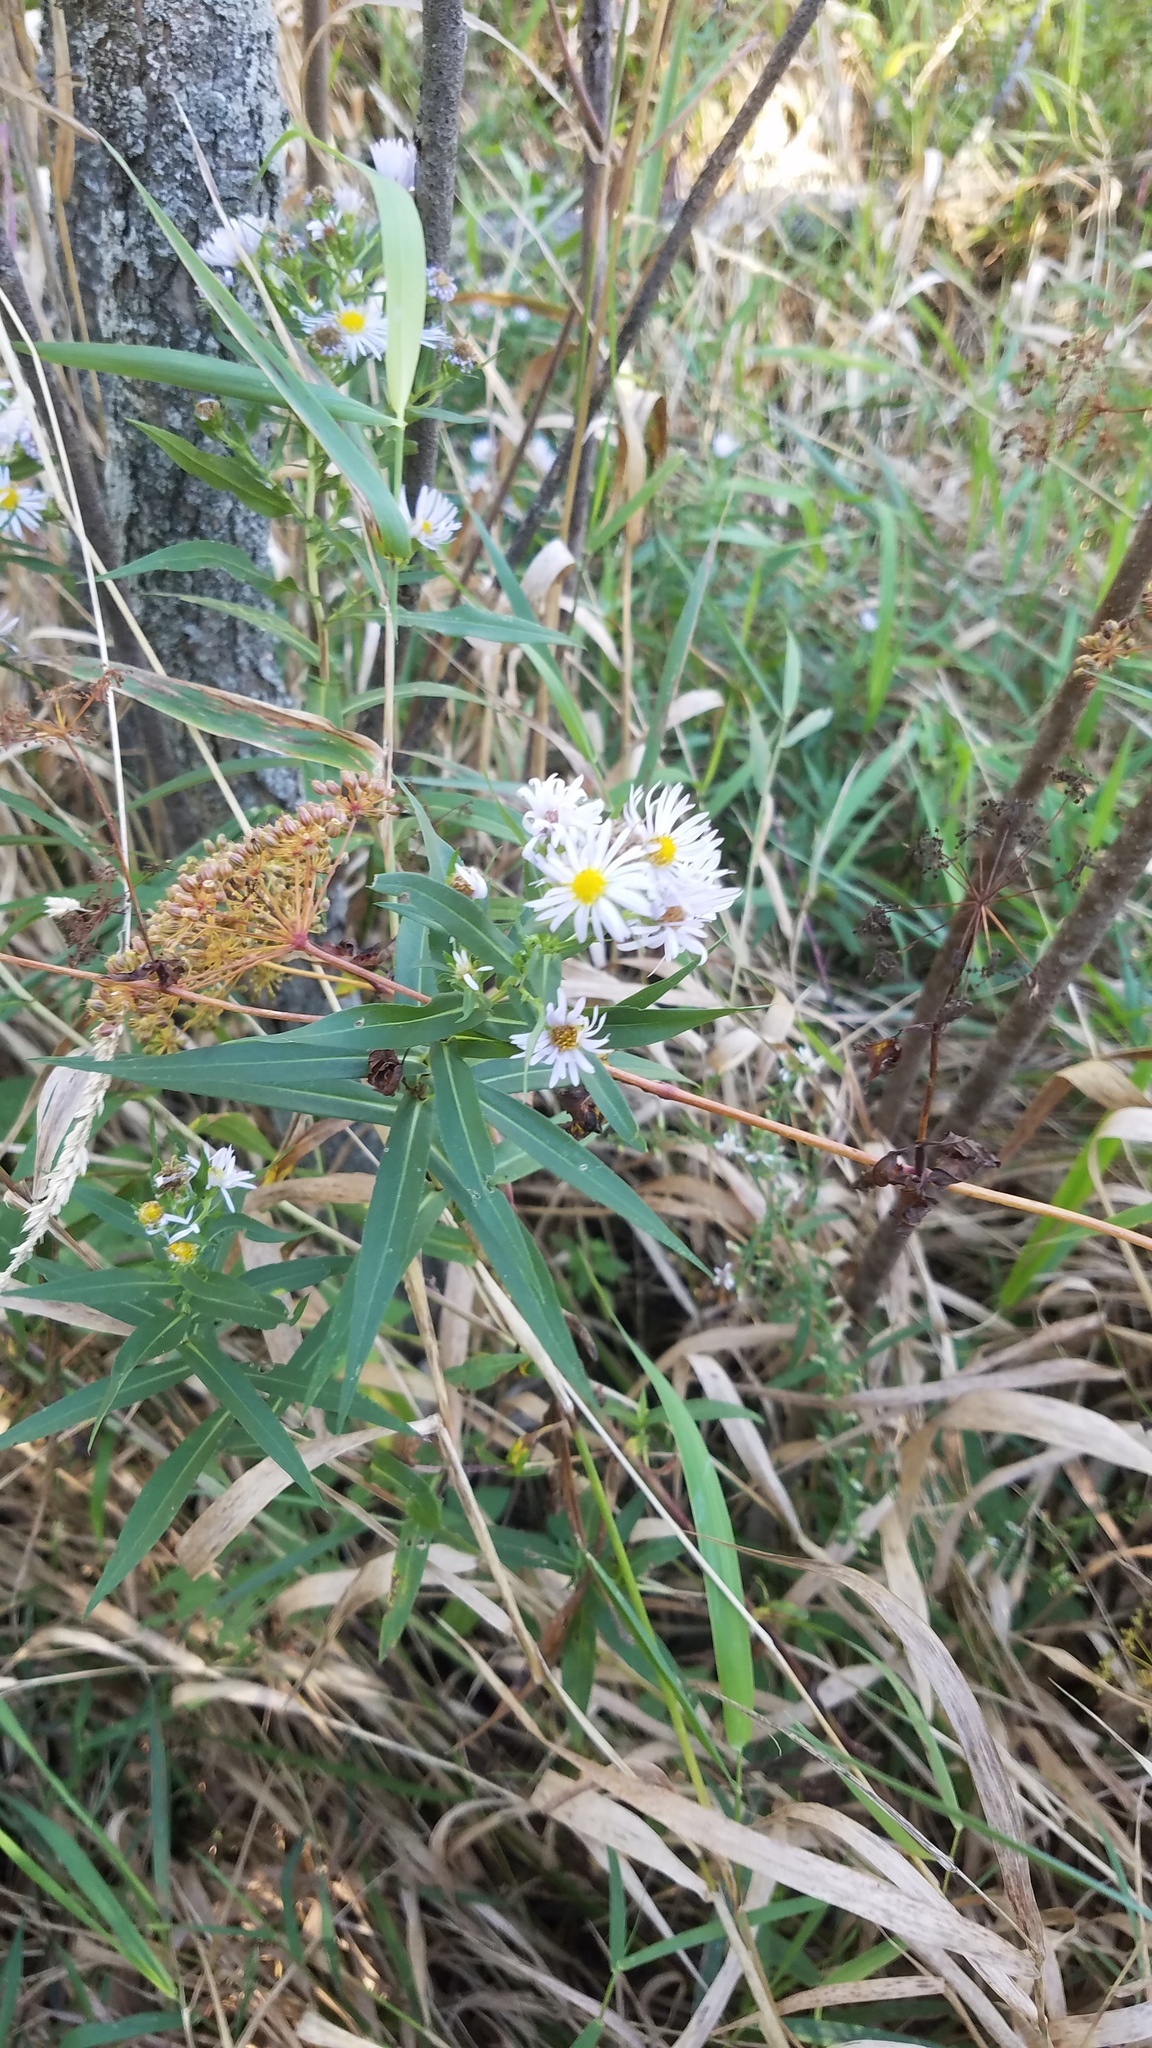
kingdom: Plantae
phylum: Tracheophyta
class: Magnoliopsida
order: Asterales
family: Asteraceae
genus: Symphyotrichum
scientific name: Symphyotrichum firmum
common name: Shining aster
